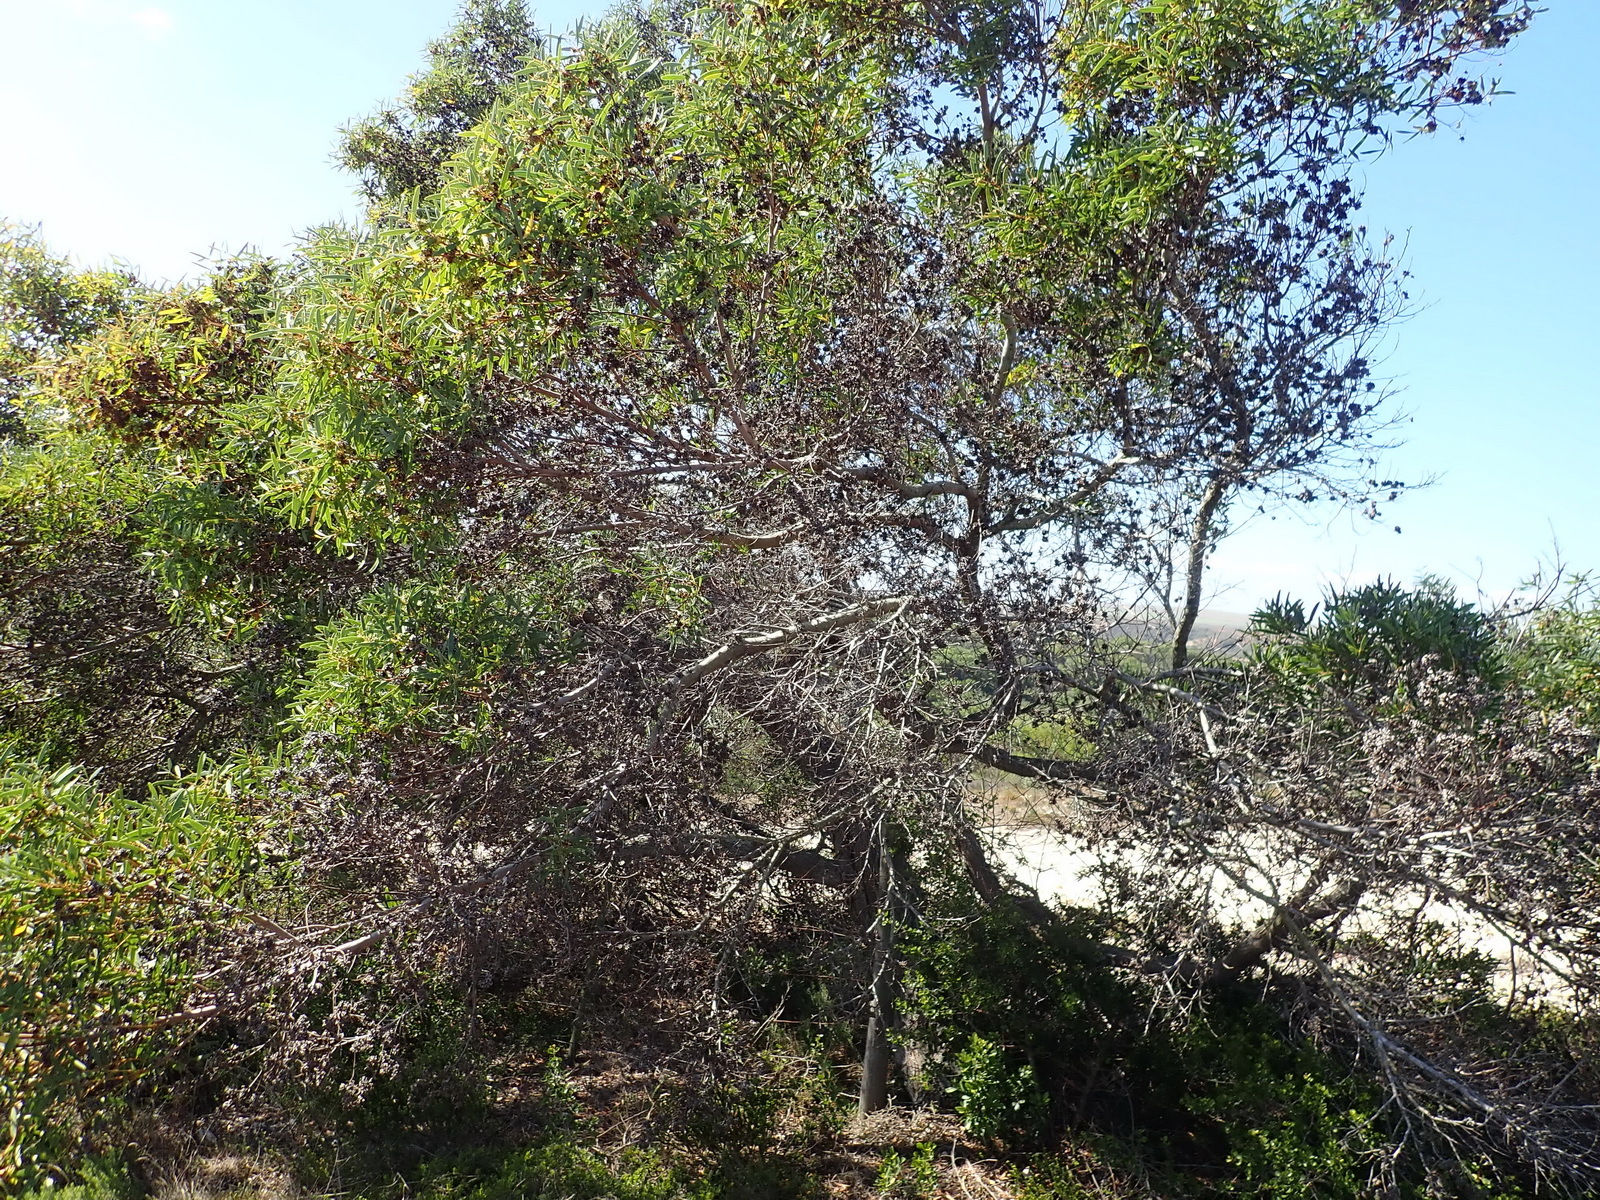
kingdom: Plantae
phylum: Tracheophyta
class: Magnoliopsida
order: Fabales
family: Fabaceae
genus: Acacia
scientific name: Acacia cyclops
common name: Coastal wattle
